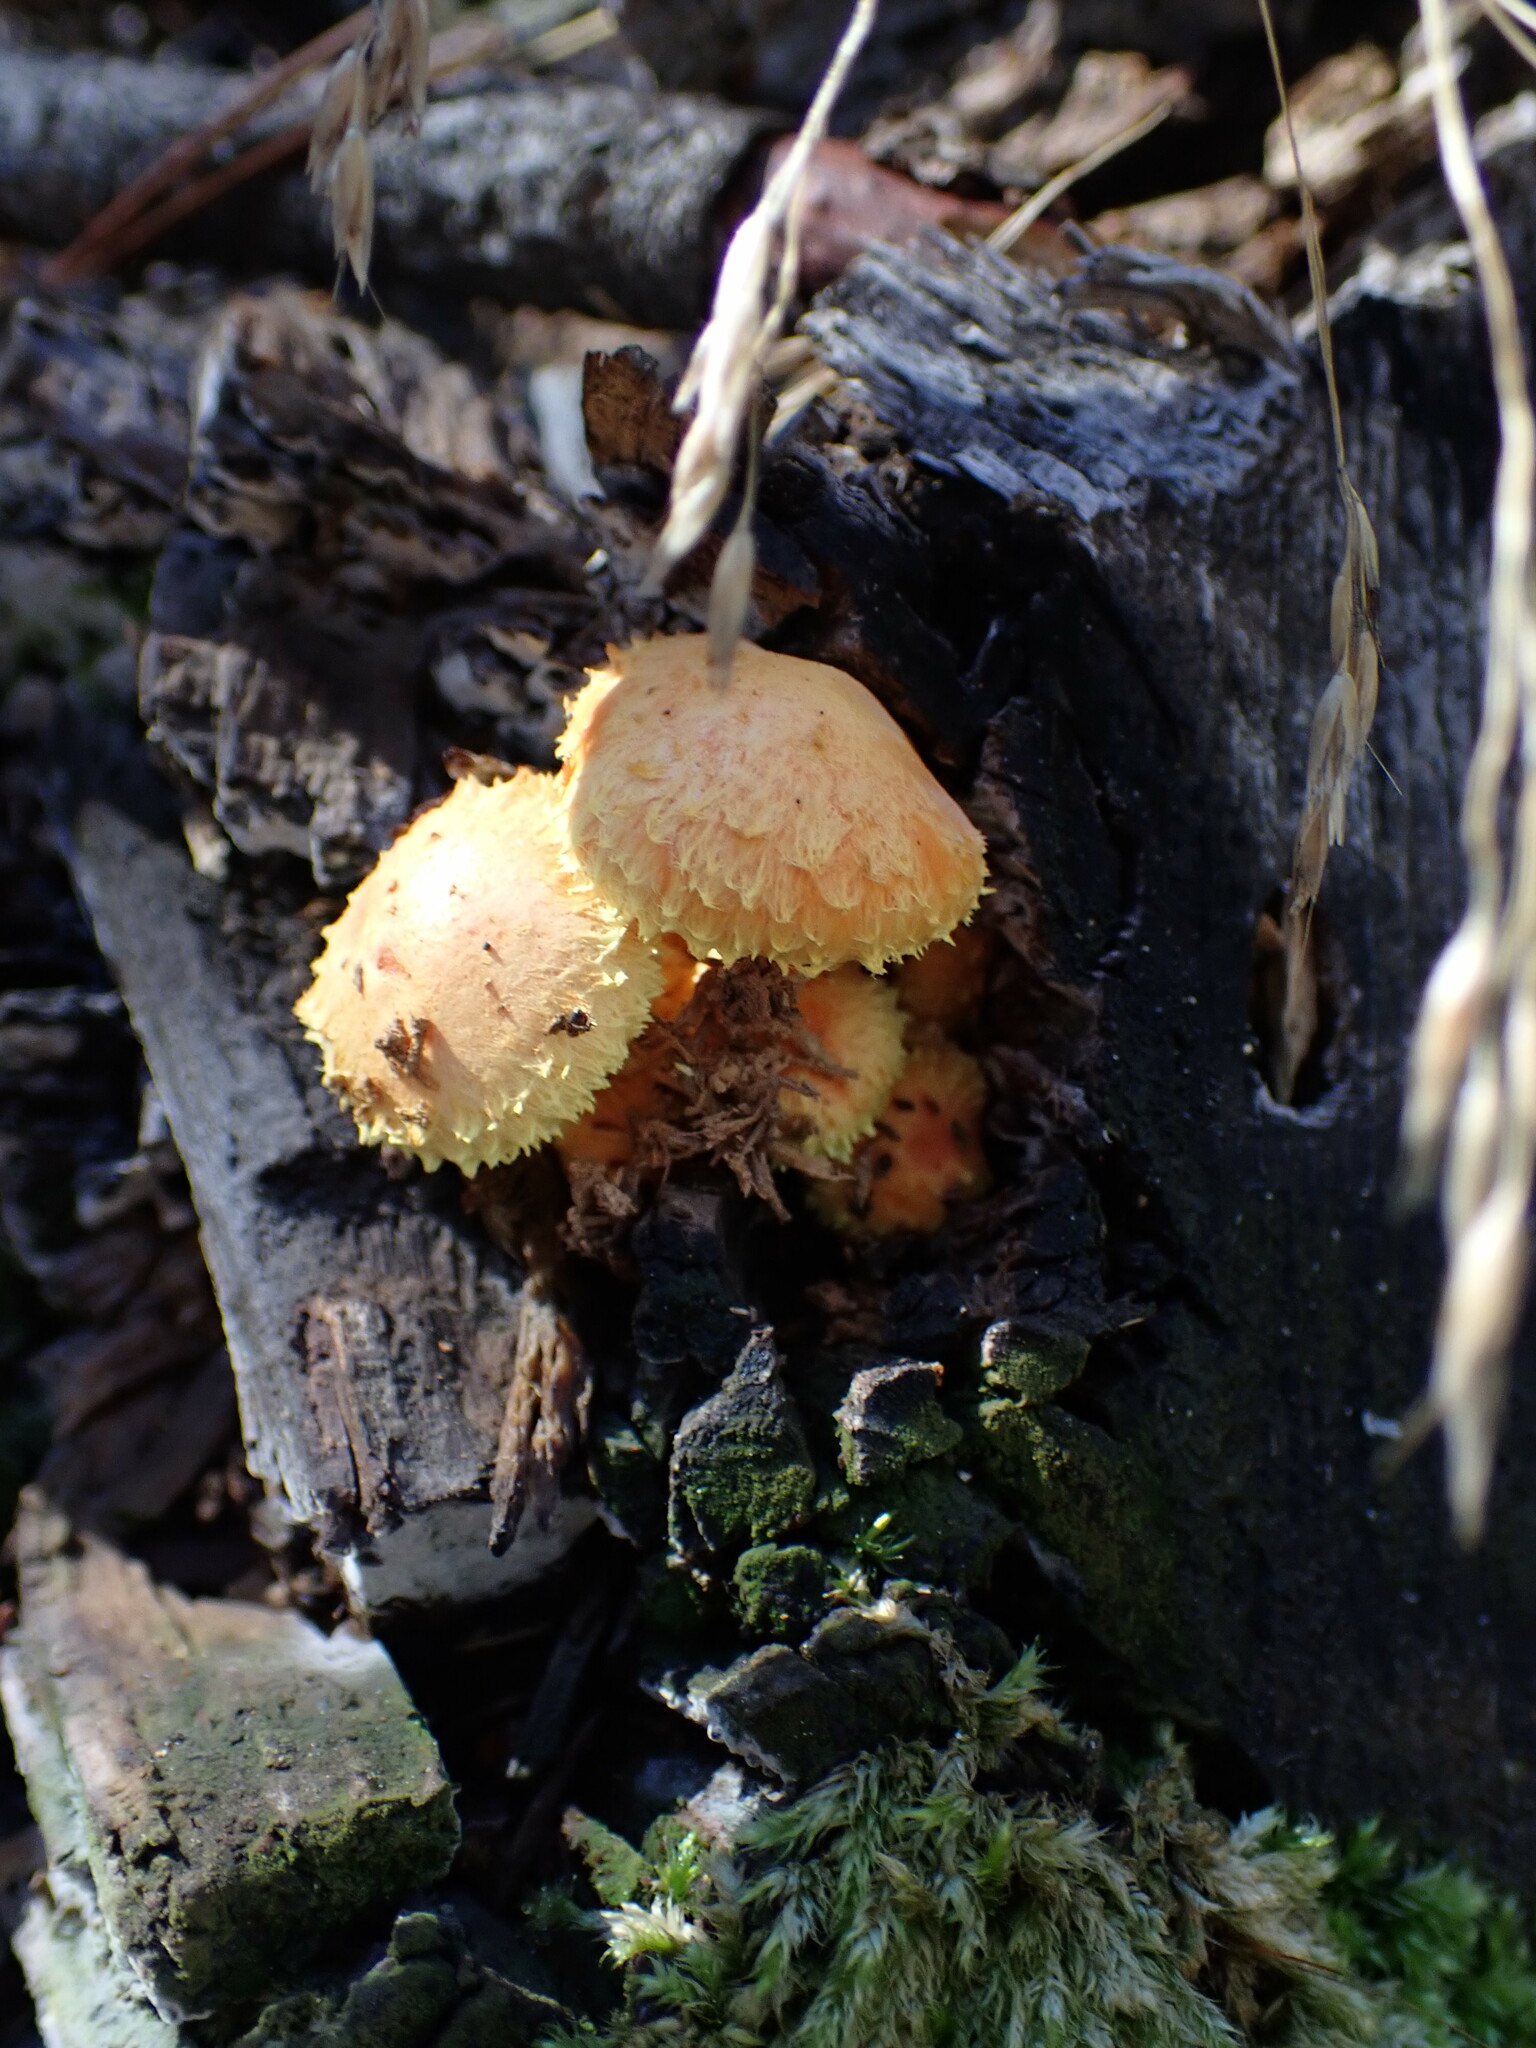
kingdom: Fungi
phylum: Basidiomycota
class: Agaricomycetes
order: Agaricales
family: Strophariaceae
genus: Pholiota
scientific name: Pholiota flammans
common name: Flaming scalycap
